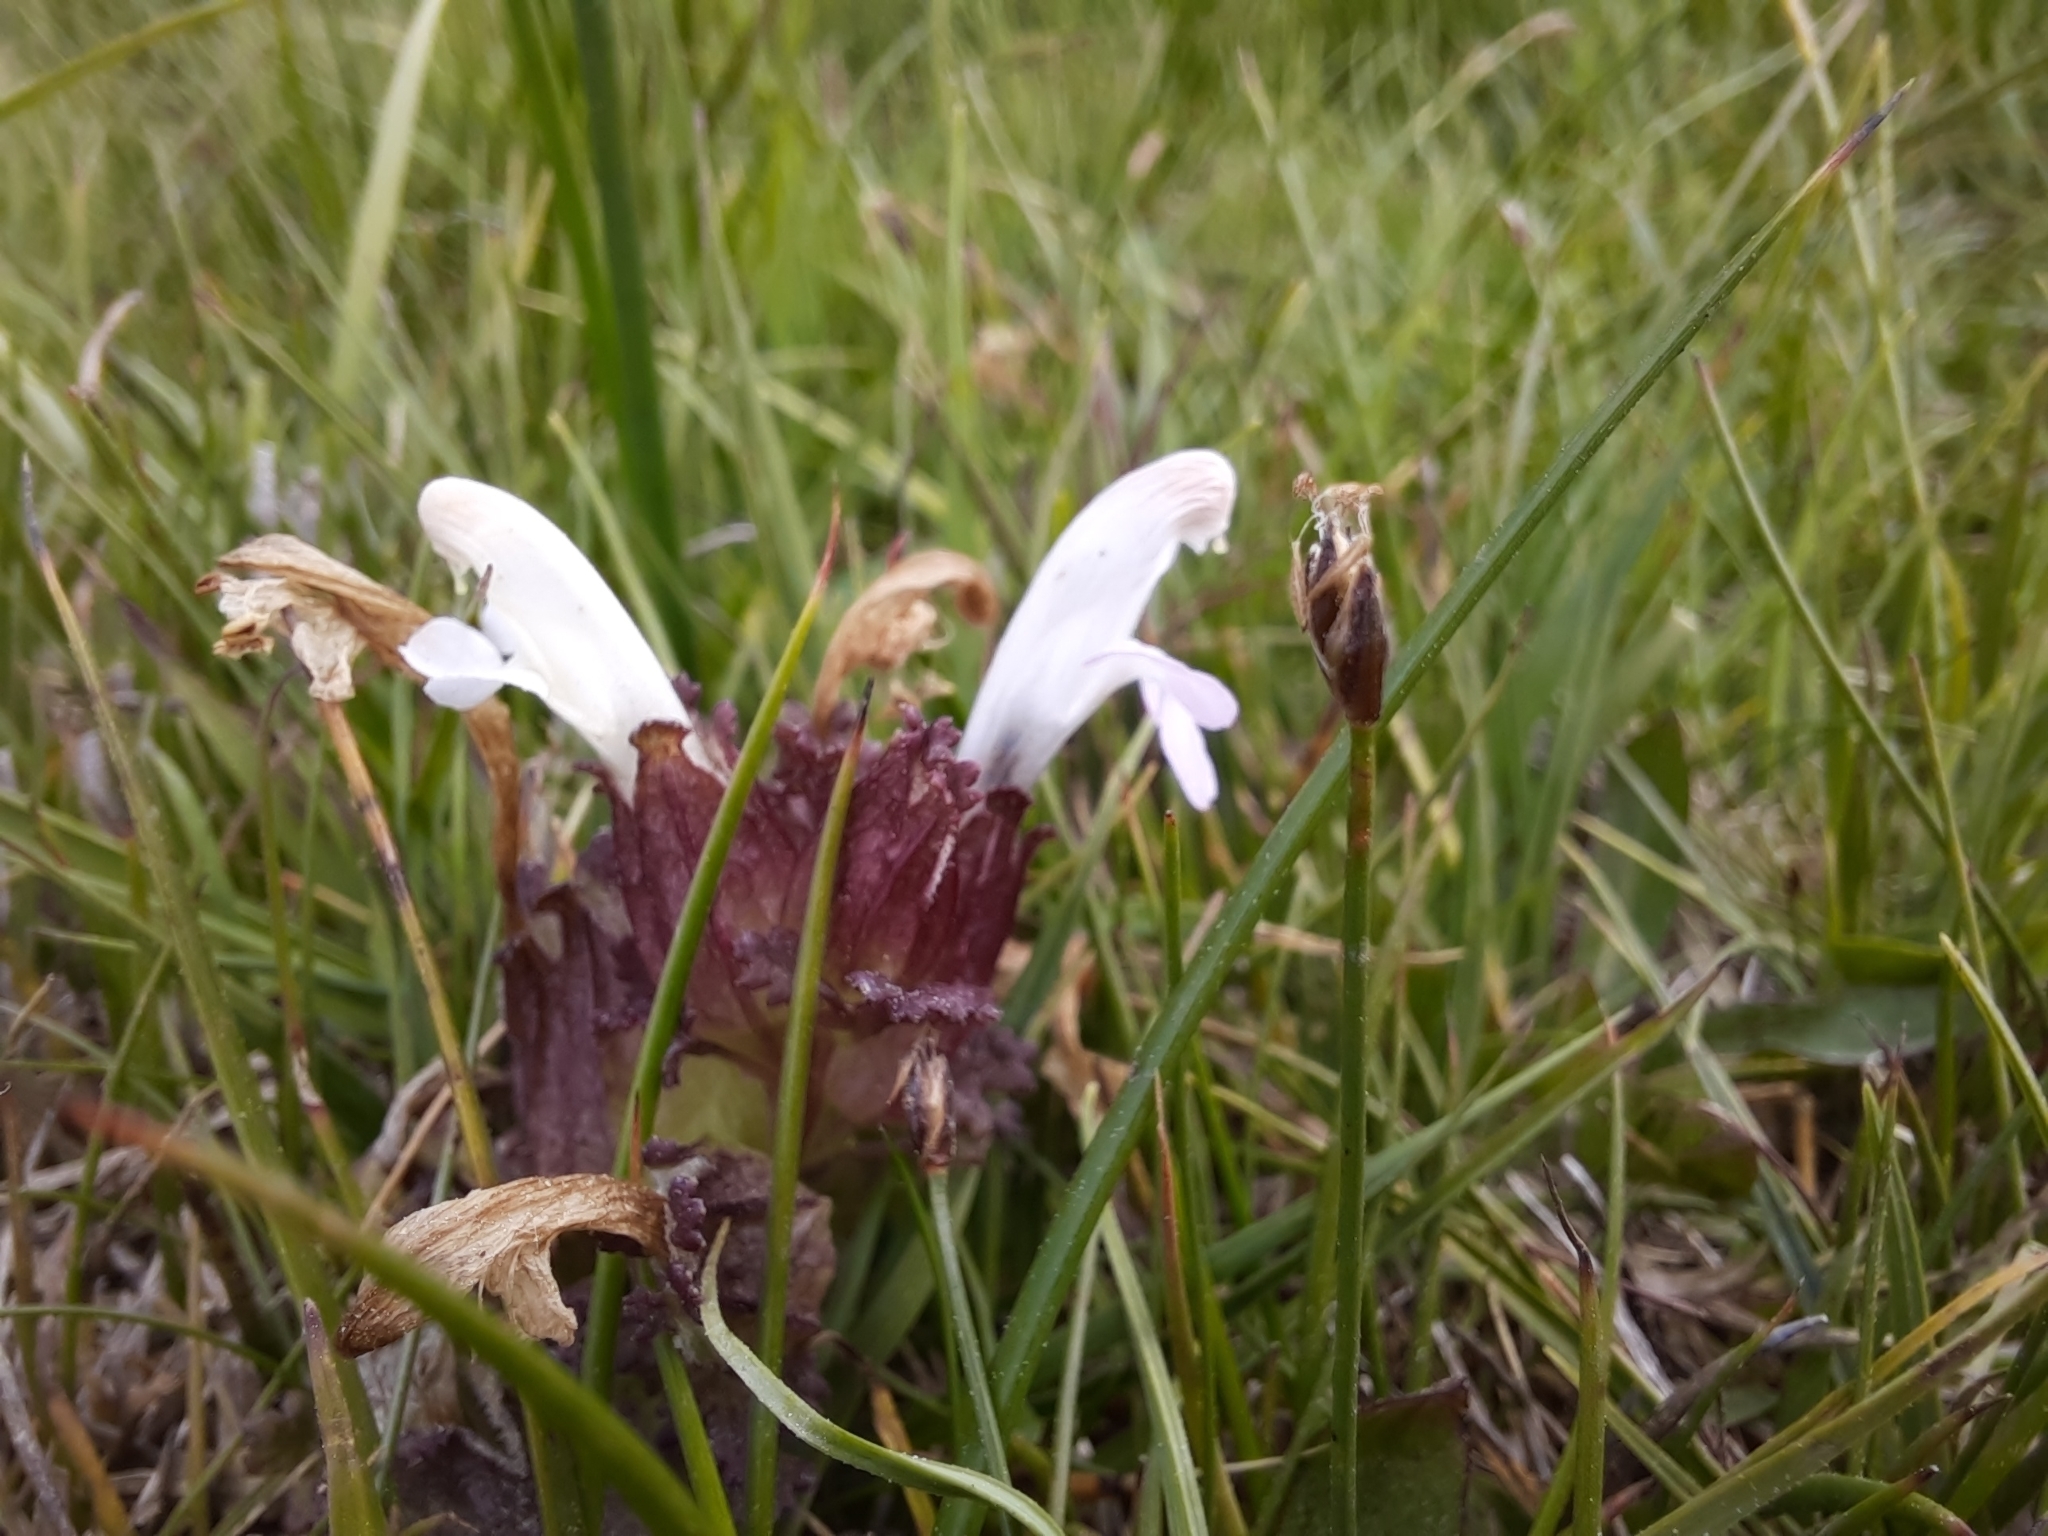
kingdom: Plantae
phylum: Tracheophyta
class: Magnoliopsida
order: Lamiales
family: Orobanchaceae
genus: Pedicularis
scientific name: Pedicularis sylvatica
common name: Lousewort
